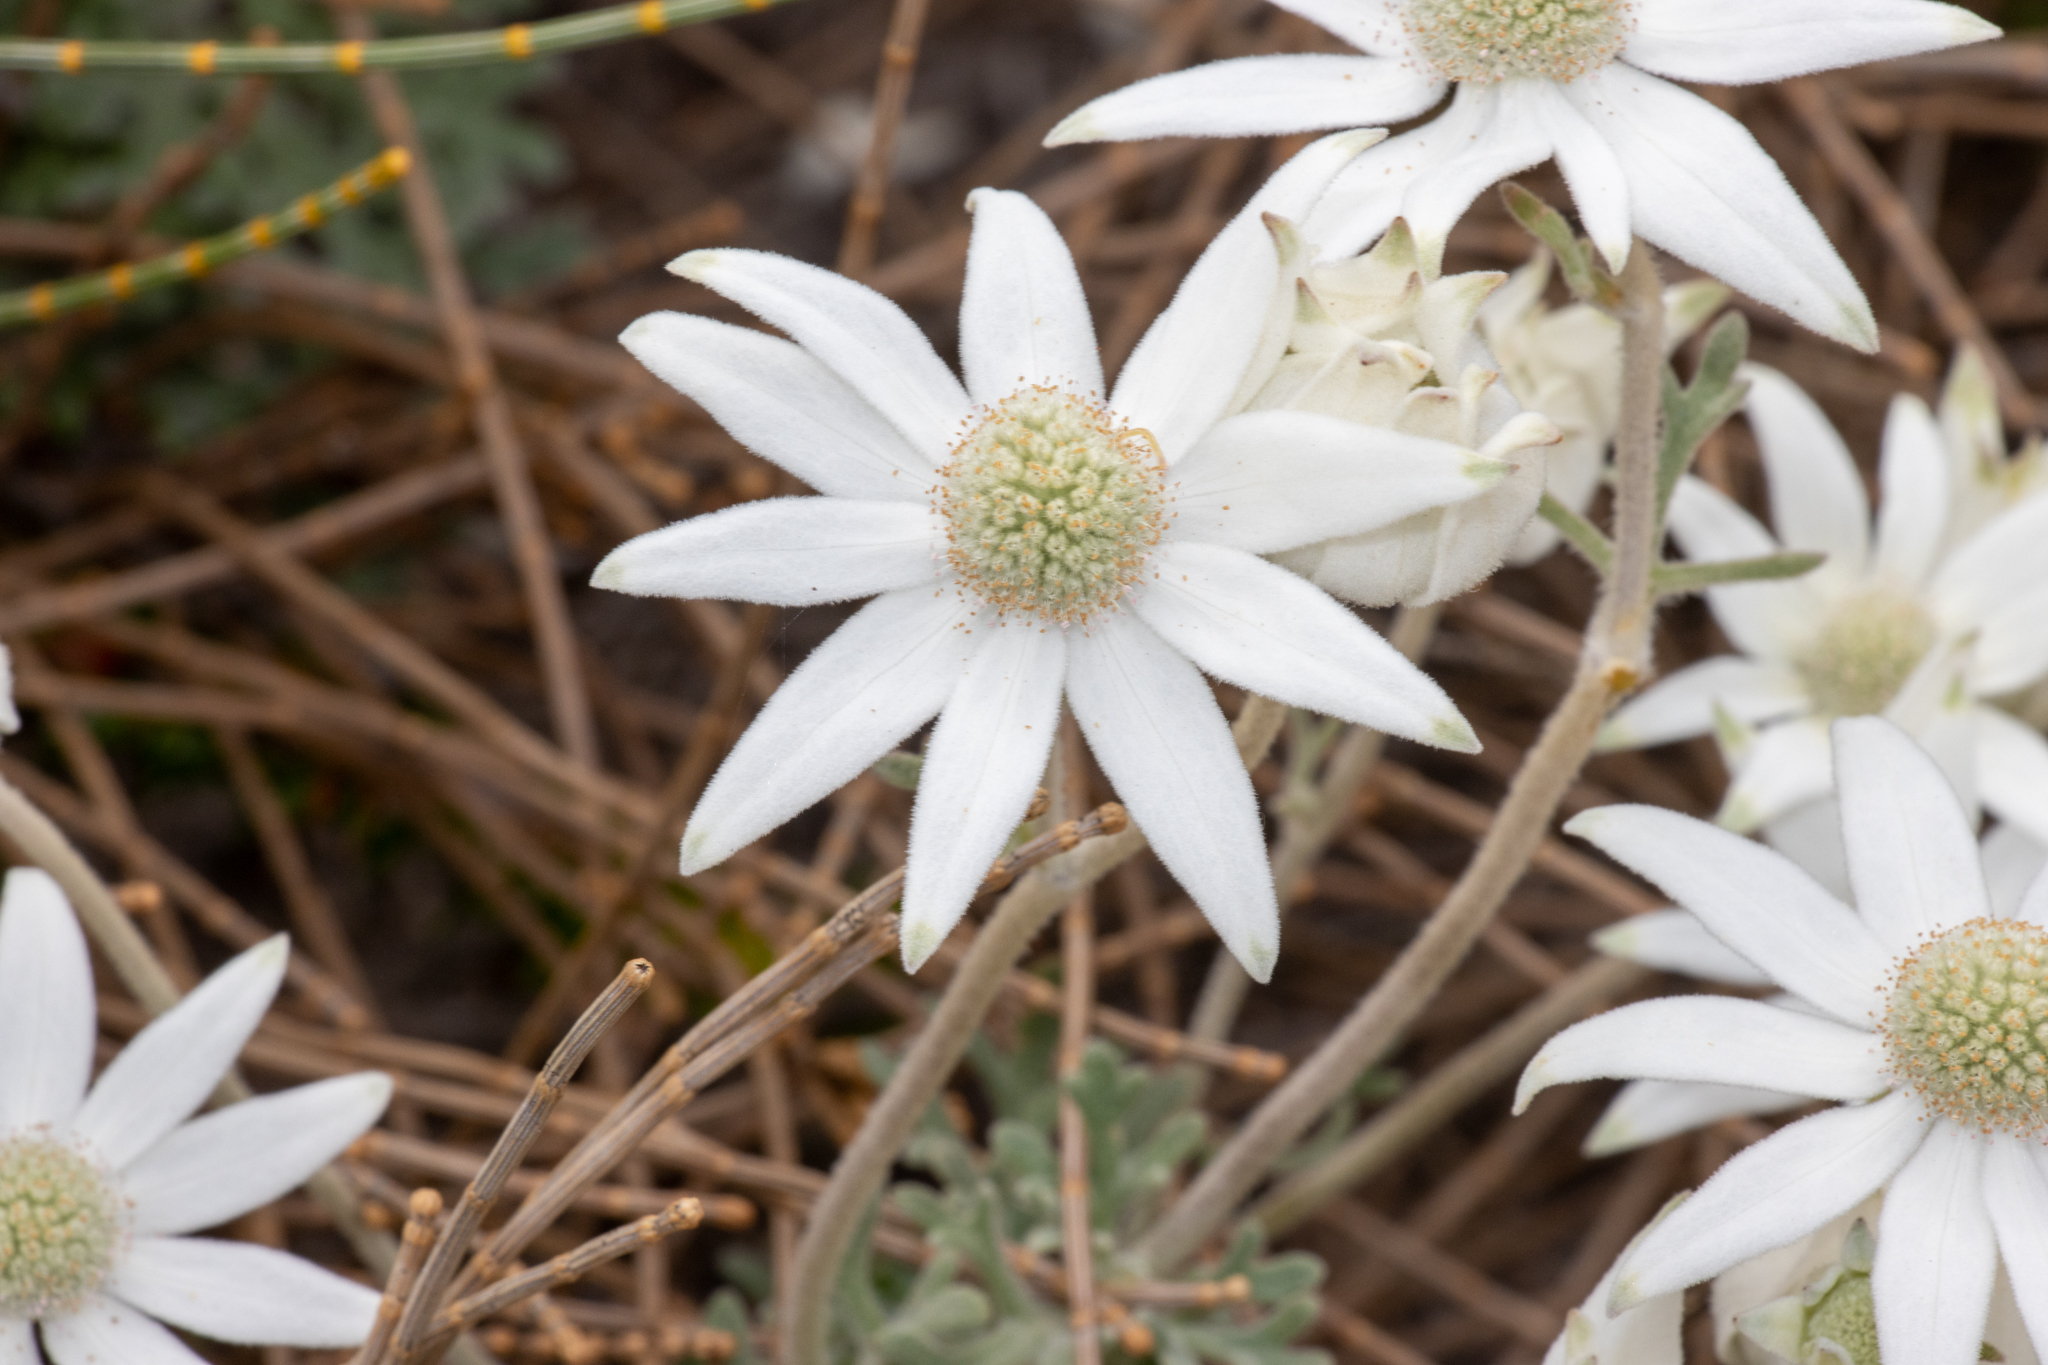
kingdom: Plantae
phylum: Tracheophyta
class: Magnoliopsida
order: Apiales
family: Apiaceae
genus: Actinotus
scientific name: Actinotus helianthi
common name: Flannel-flower
